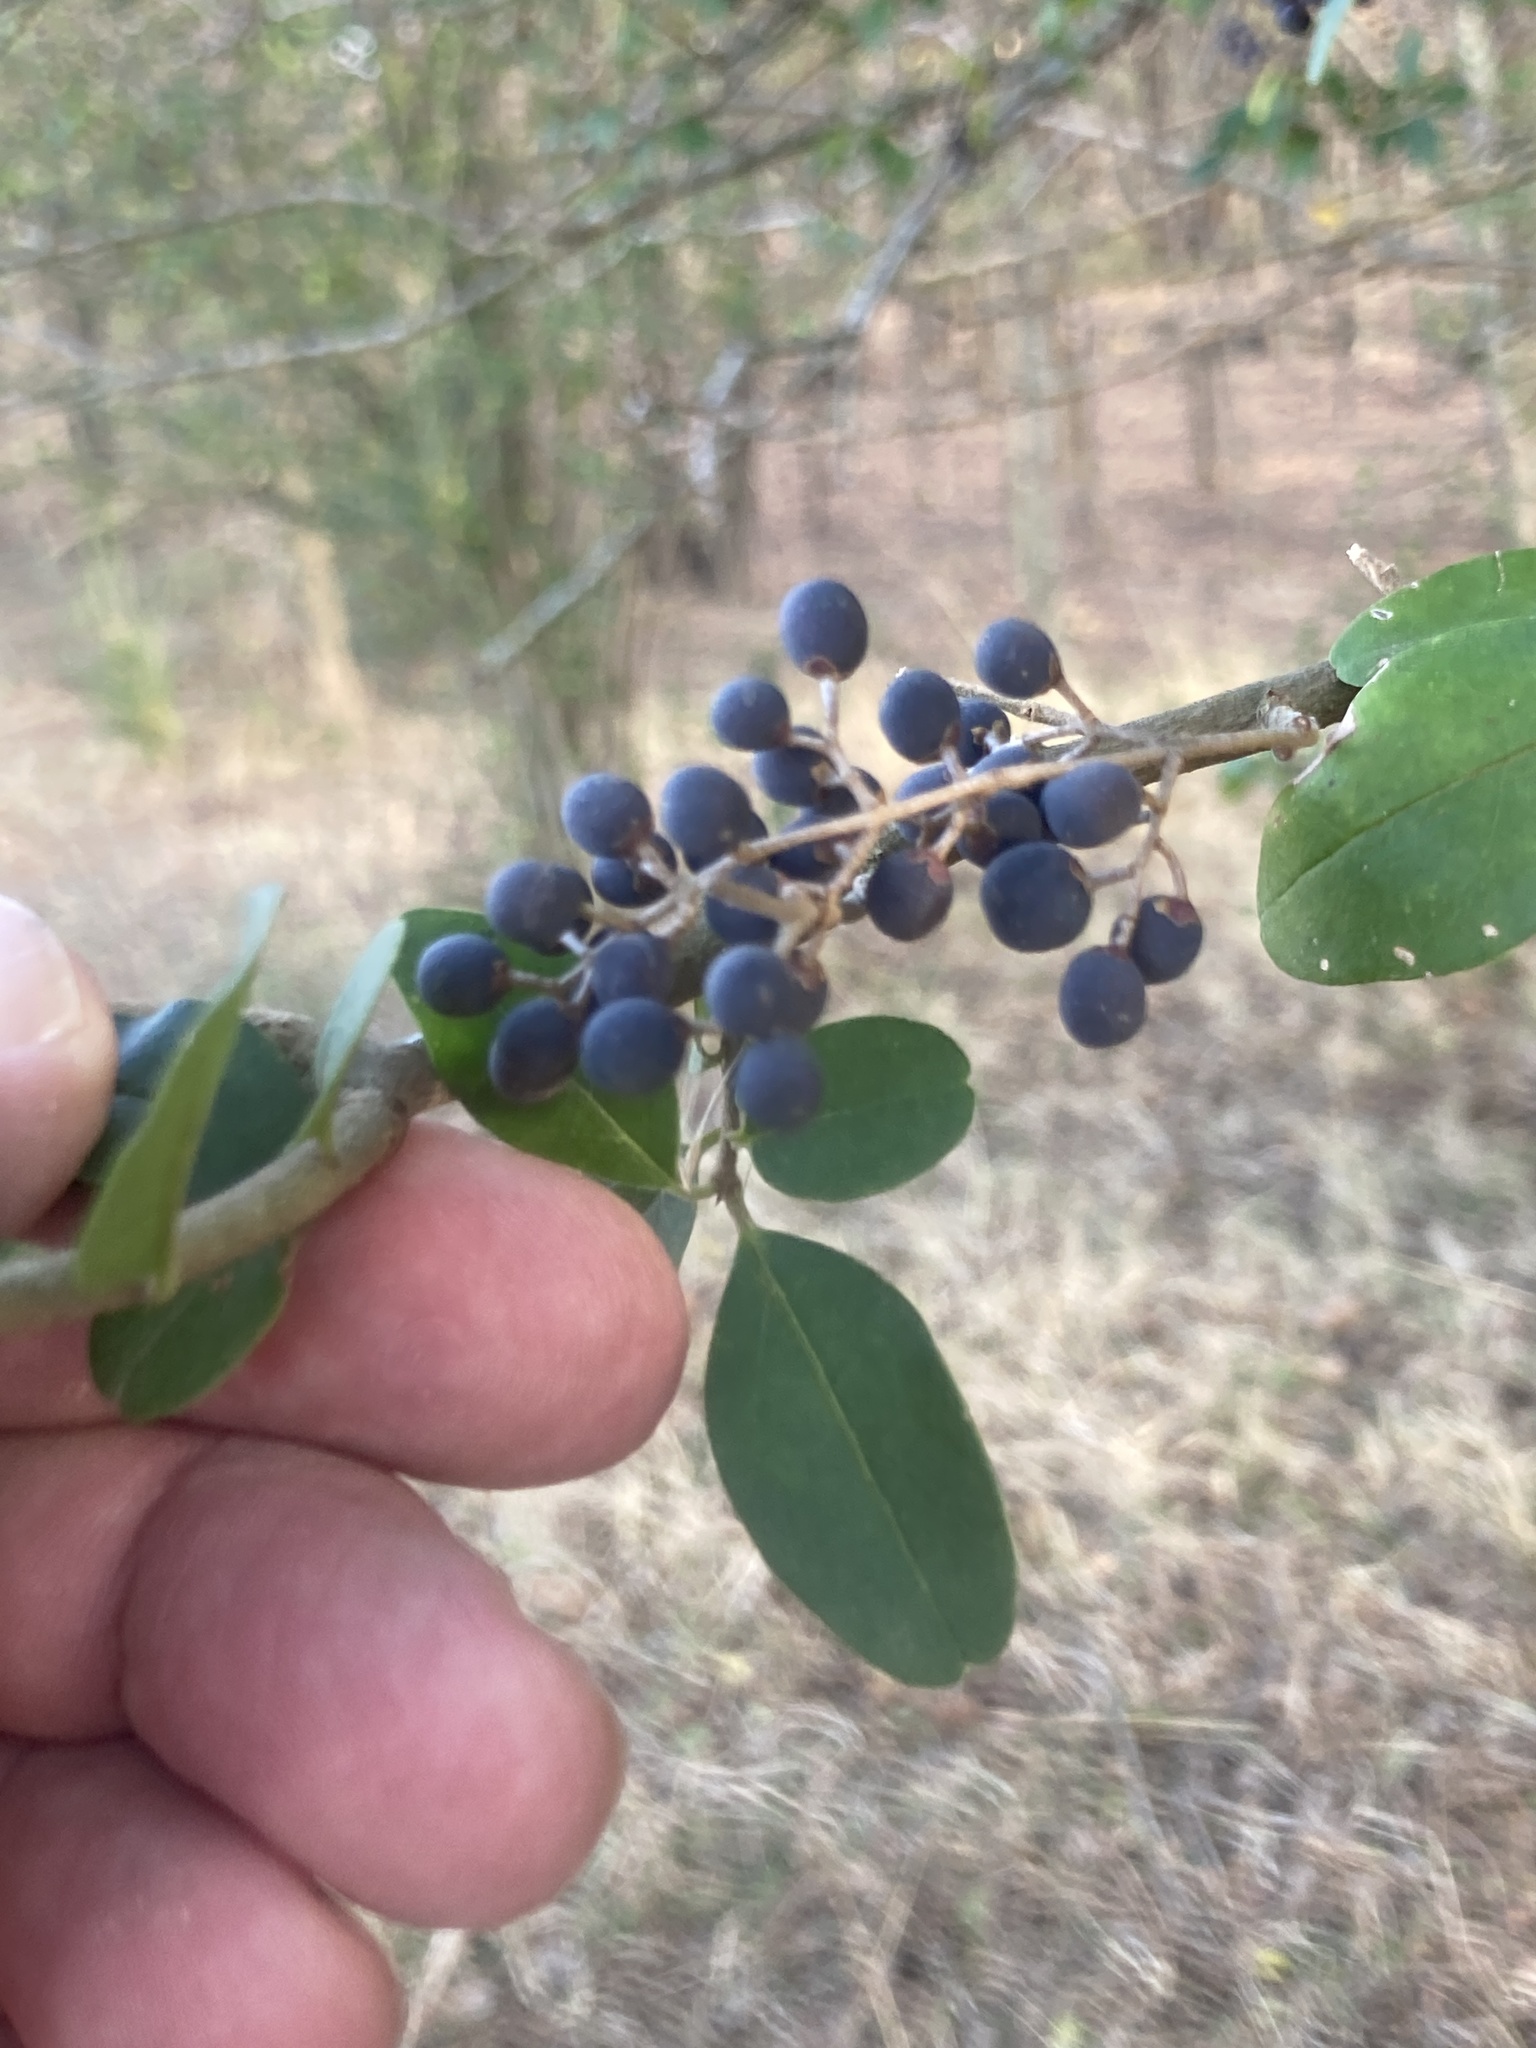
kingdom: Plantae
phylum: Tracheophyta
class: Magnoliopsida
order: Lamiales
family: Oleaceae
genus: Ligustrum
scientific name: Ligustrum sinense
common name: Chinese privet
